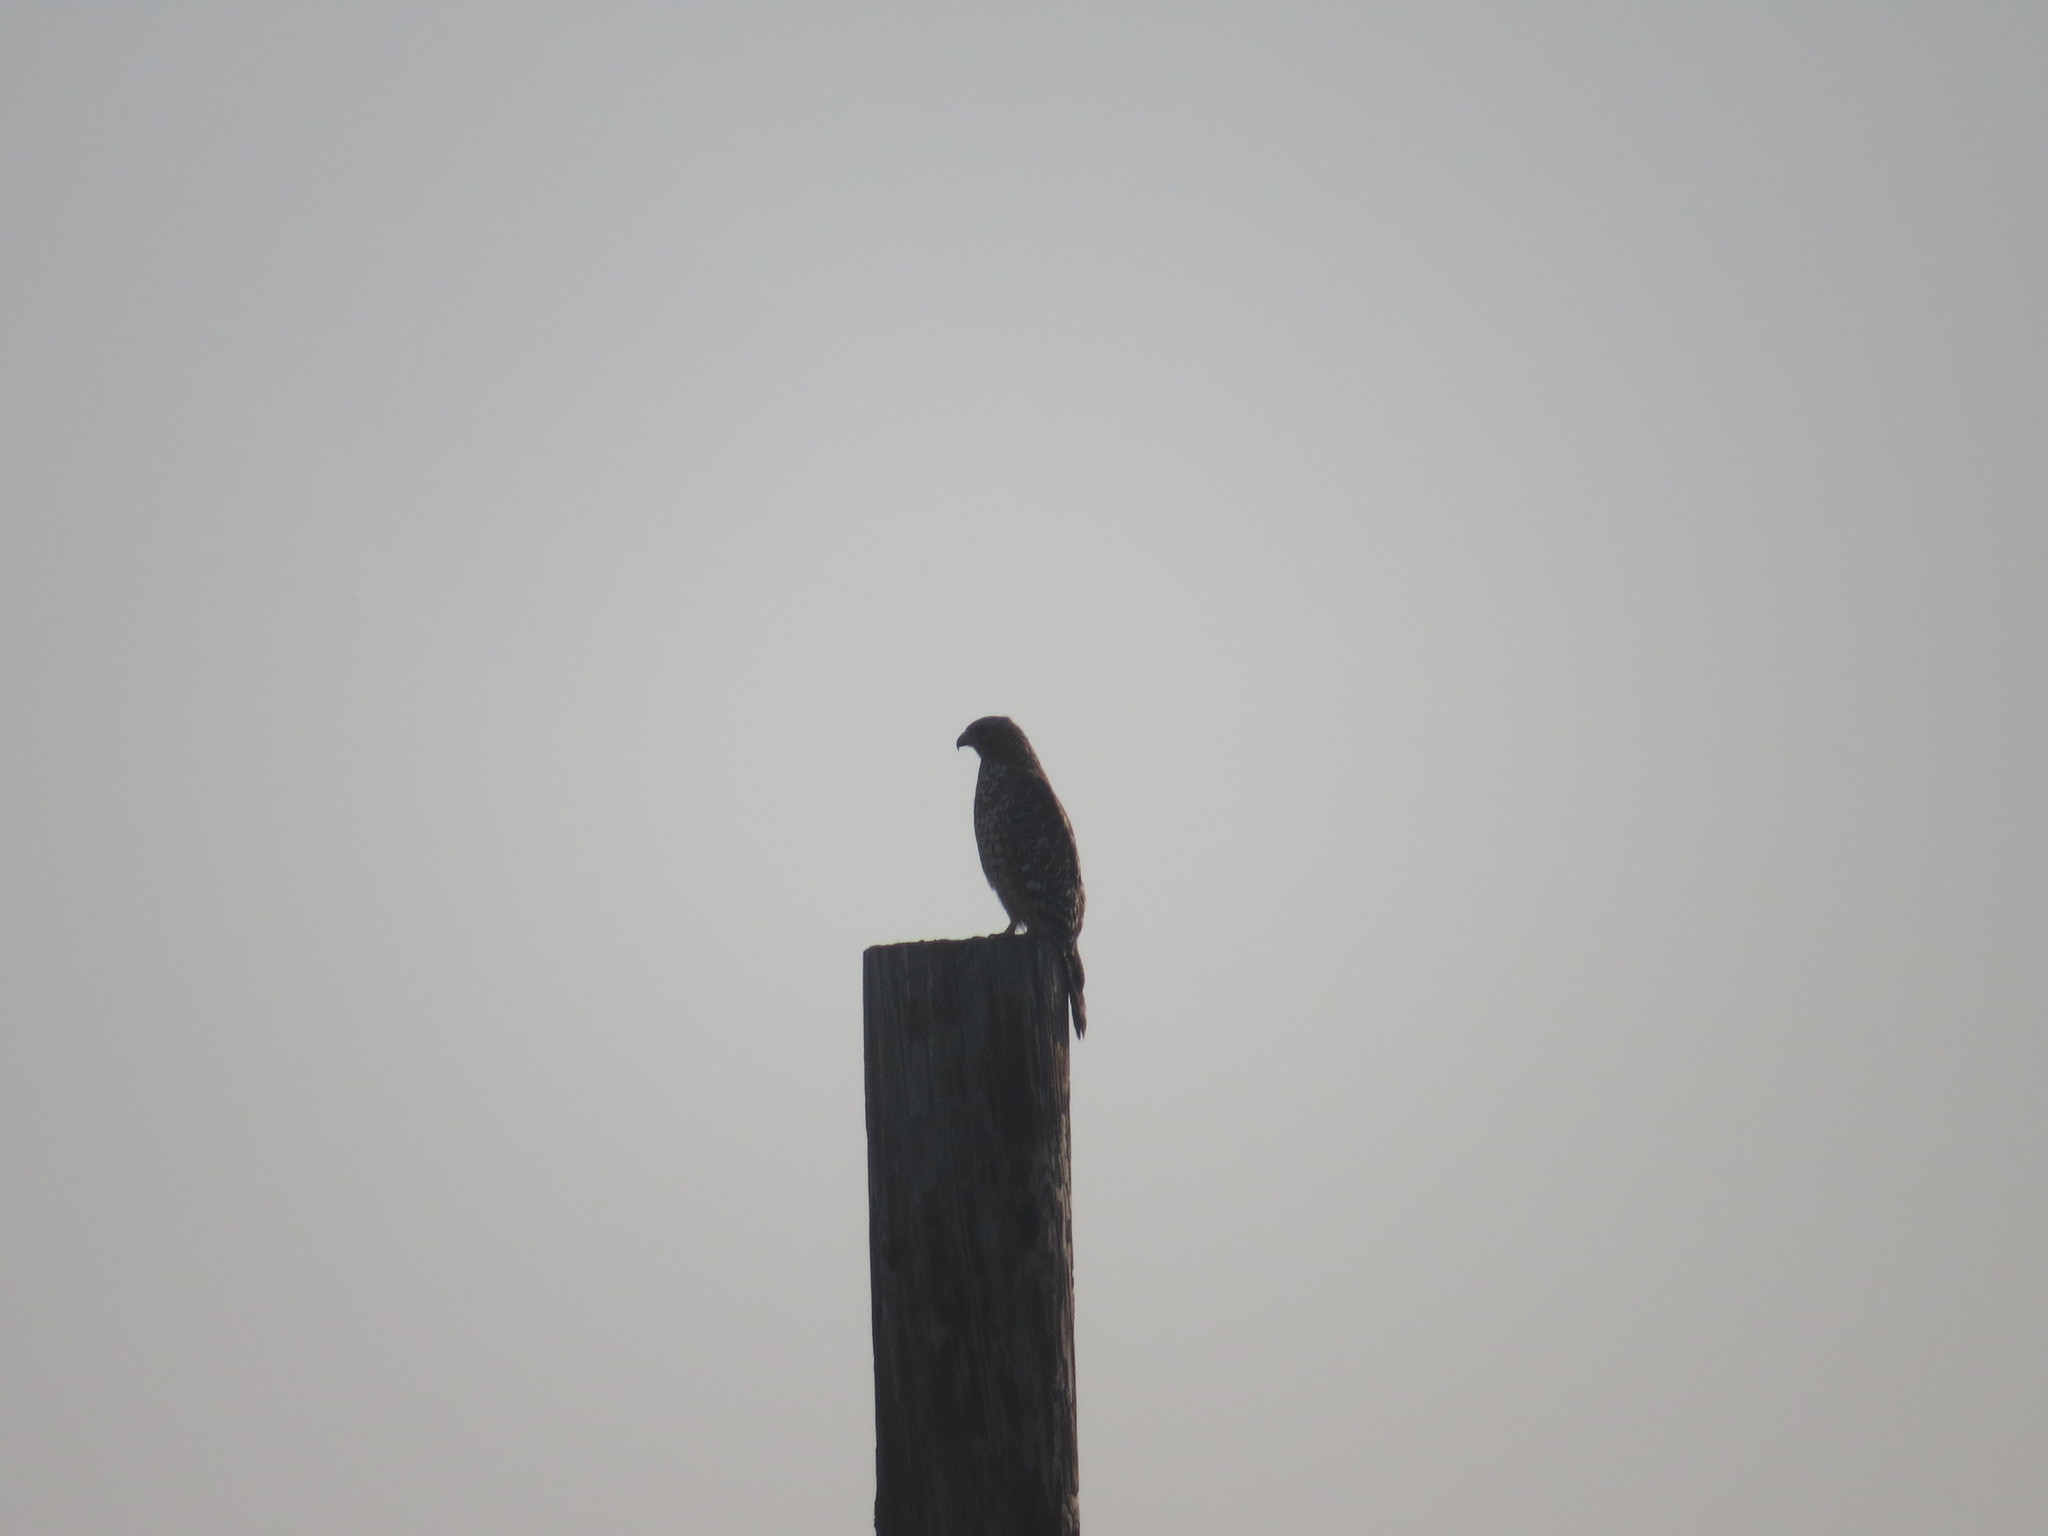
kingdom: Animalia
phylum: Chordata
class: Aves
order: Accipitriformes
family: Accipitridae
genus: Buteo
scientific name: Buteo lineatus
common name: Red-shouldered hawk
